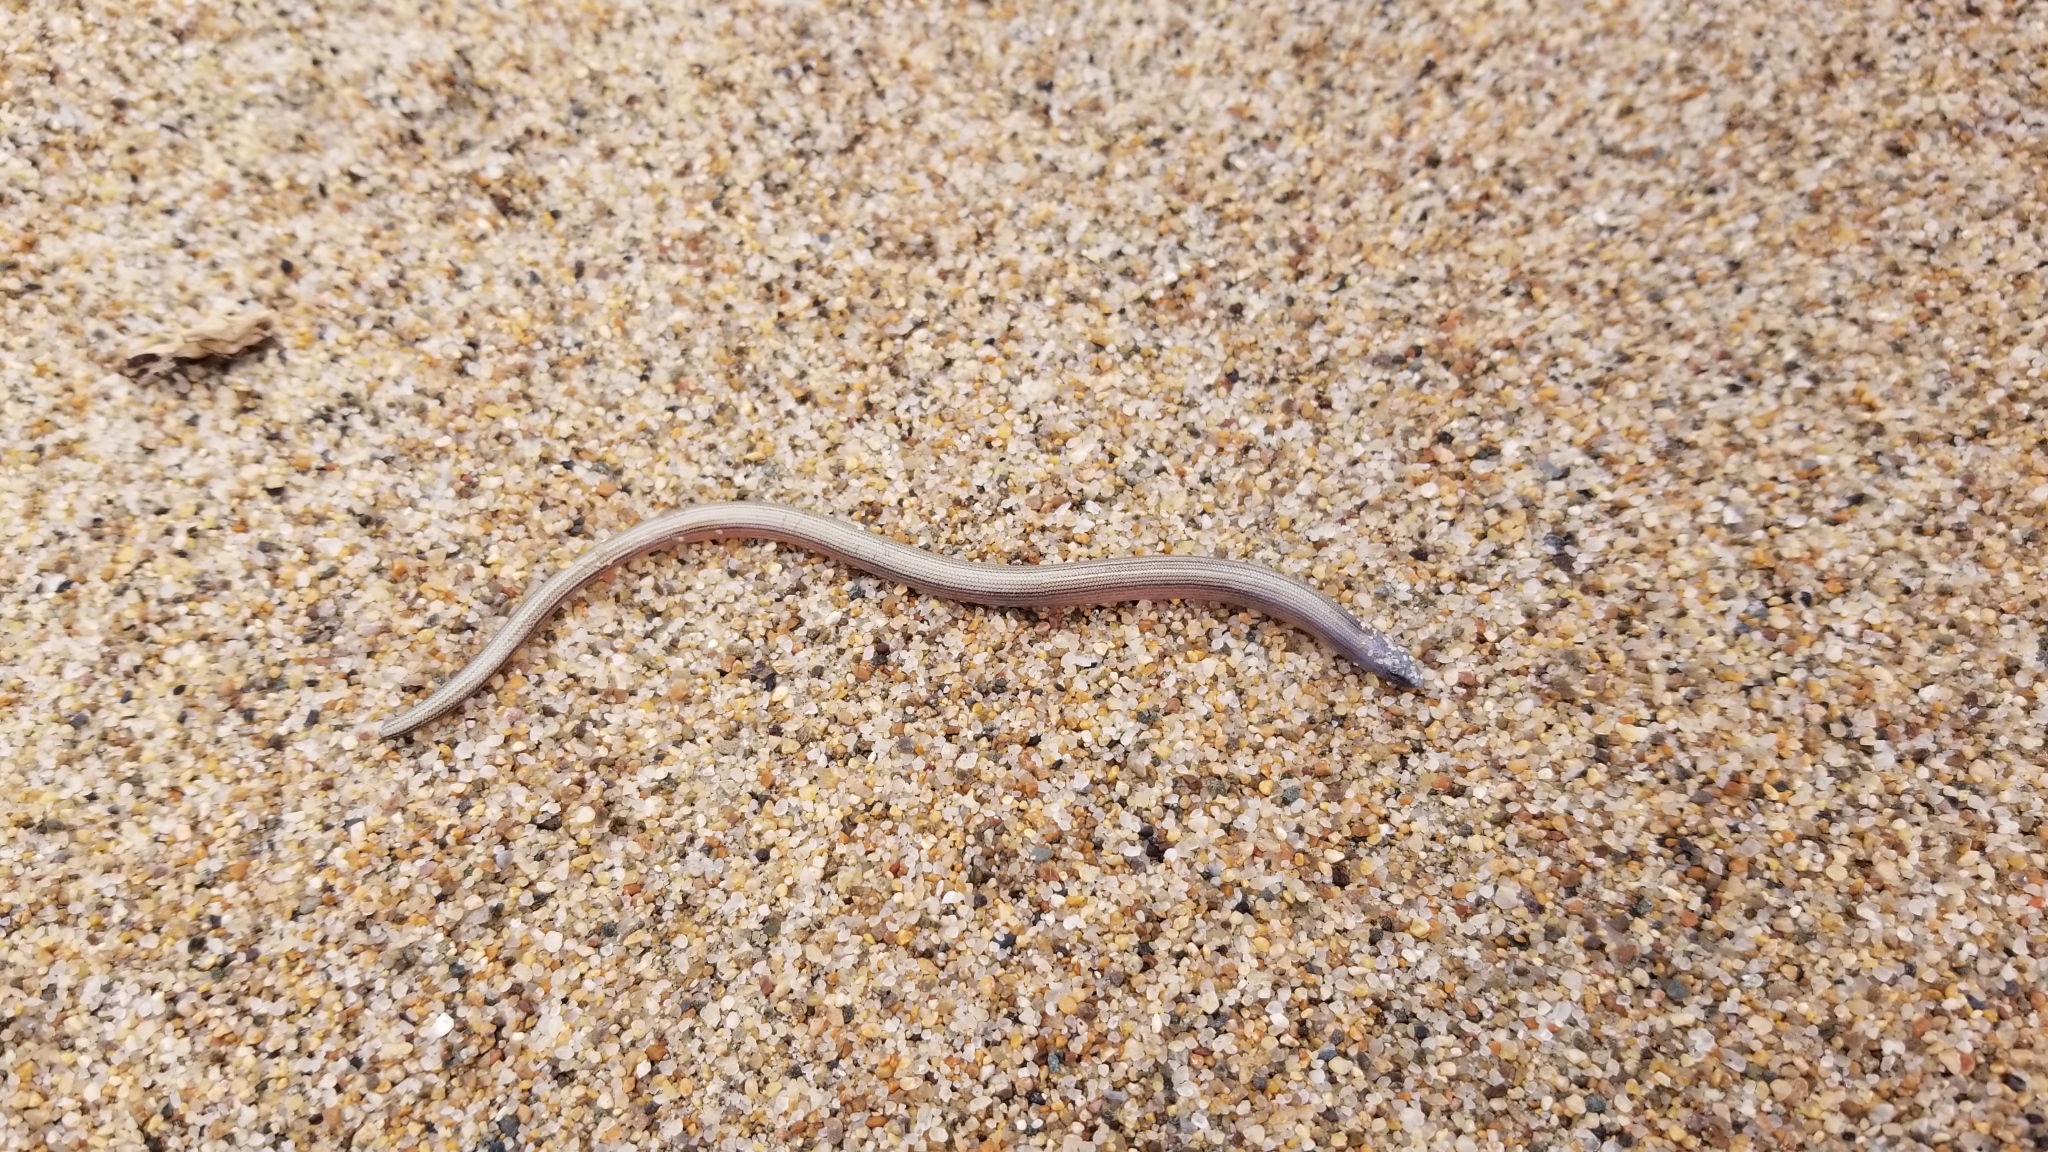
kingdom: Animalia
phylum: Chordata
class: Squamata
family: Anguidae
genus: Anniella
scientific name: Anniella pulchra
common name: California legless lizard
